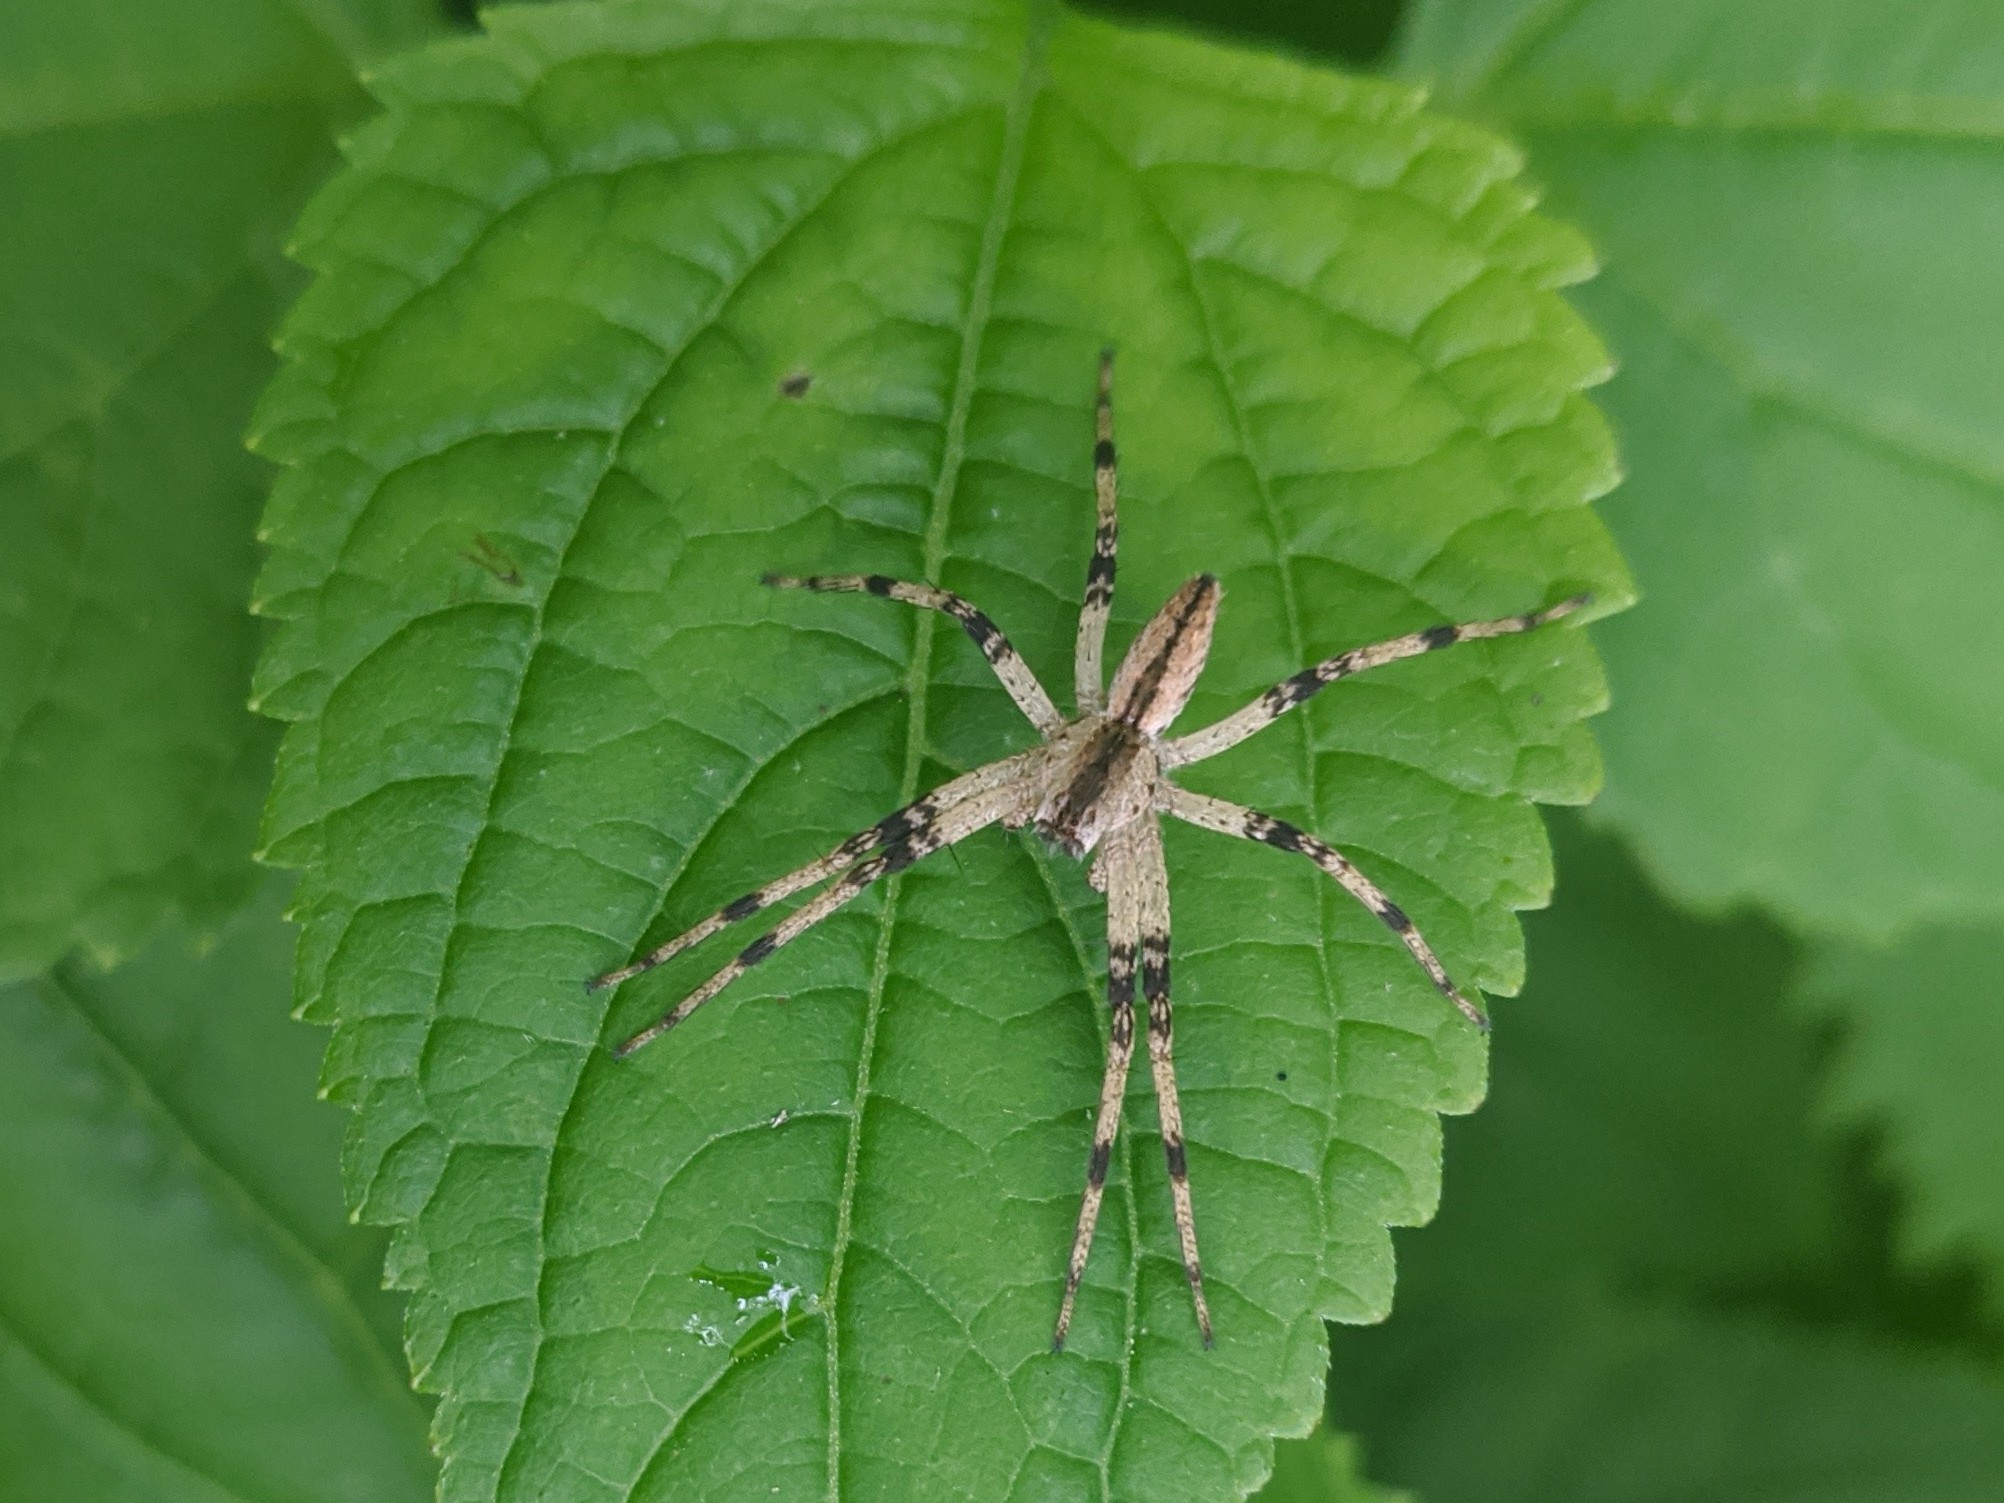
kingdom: Animalia
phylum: Arthropoda
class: Arachnida
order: Araneae
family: Pisauridae
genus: Pisaurina
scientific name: Pisaurina mira
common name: American nursery web spider
